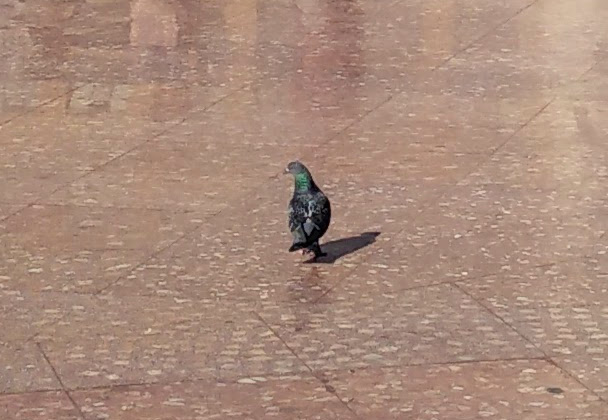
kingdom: Animalia
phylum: Chordata
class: Aves
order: Columbiformes
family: Columbidae
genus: Columba
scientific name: Columba livia
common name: Rock pigeon
